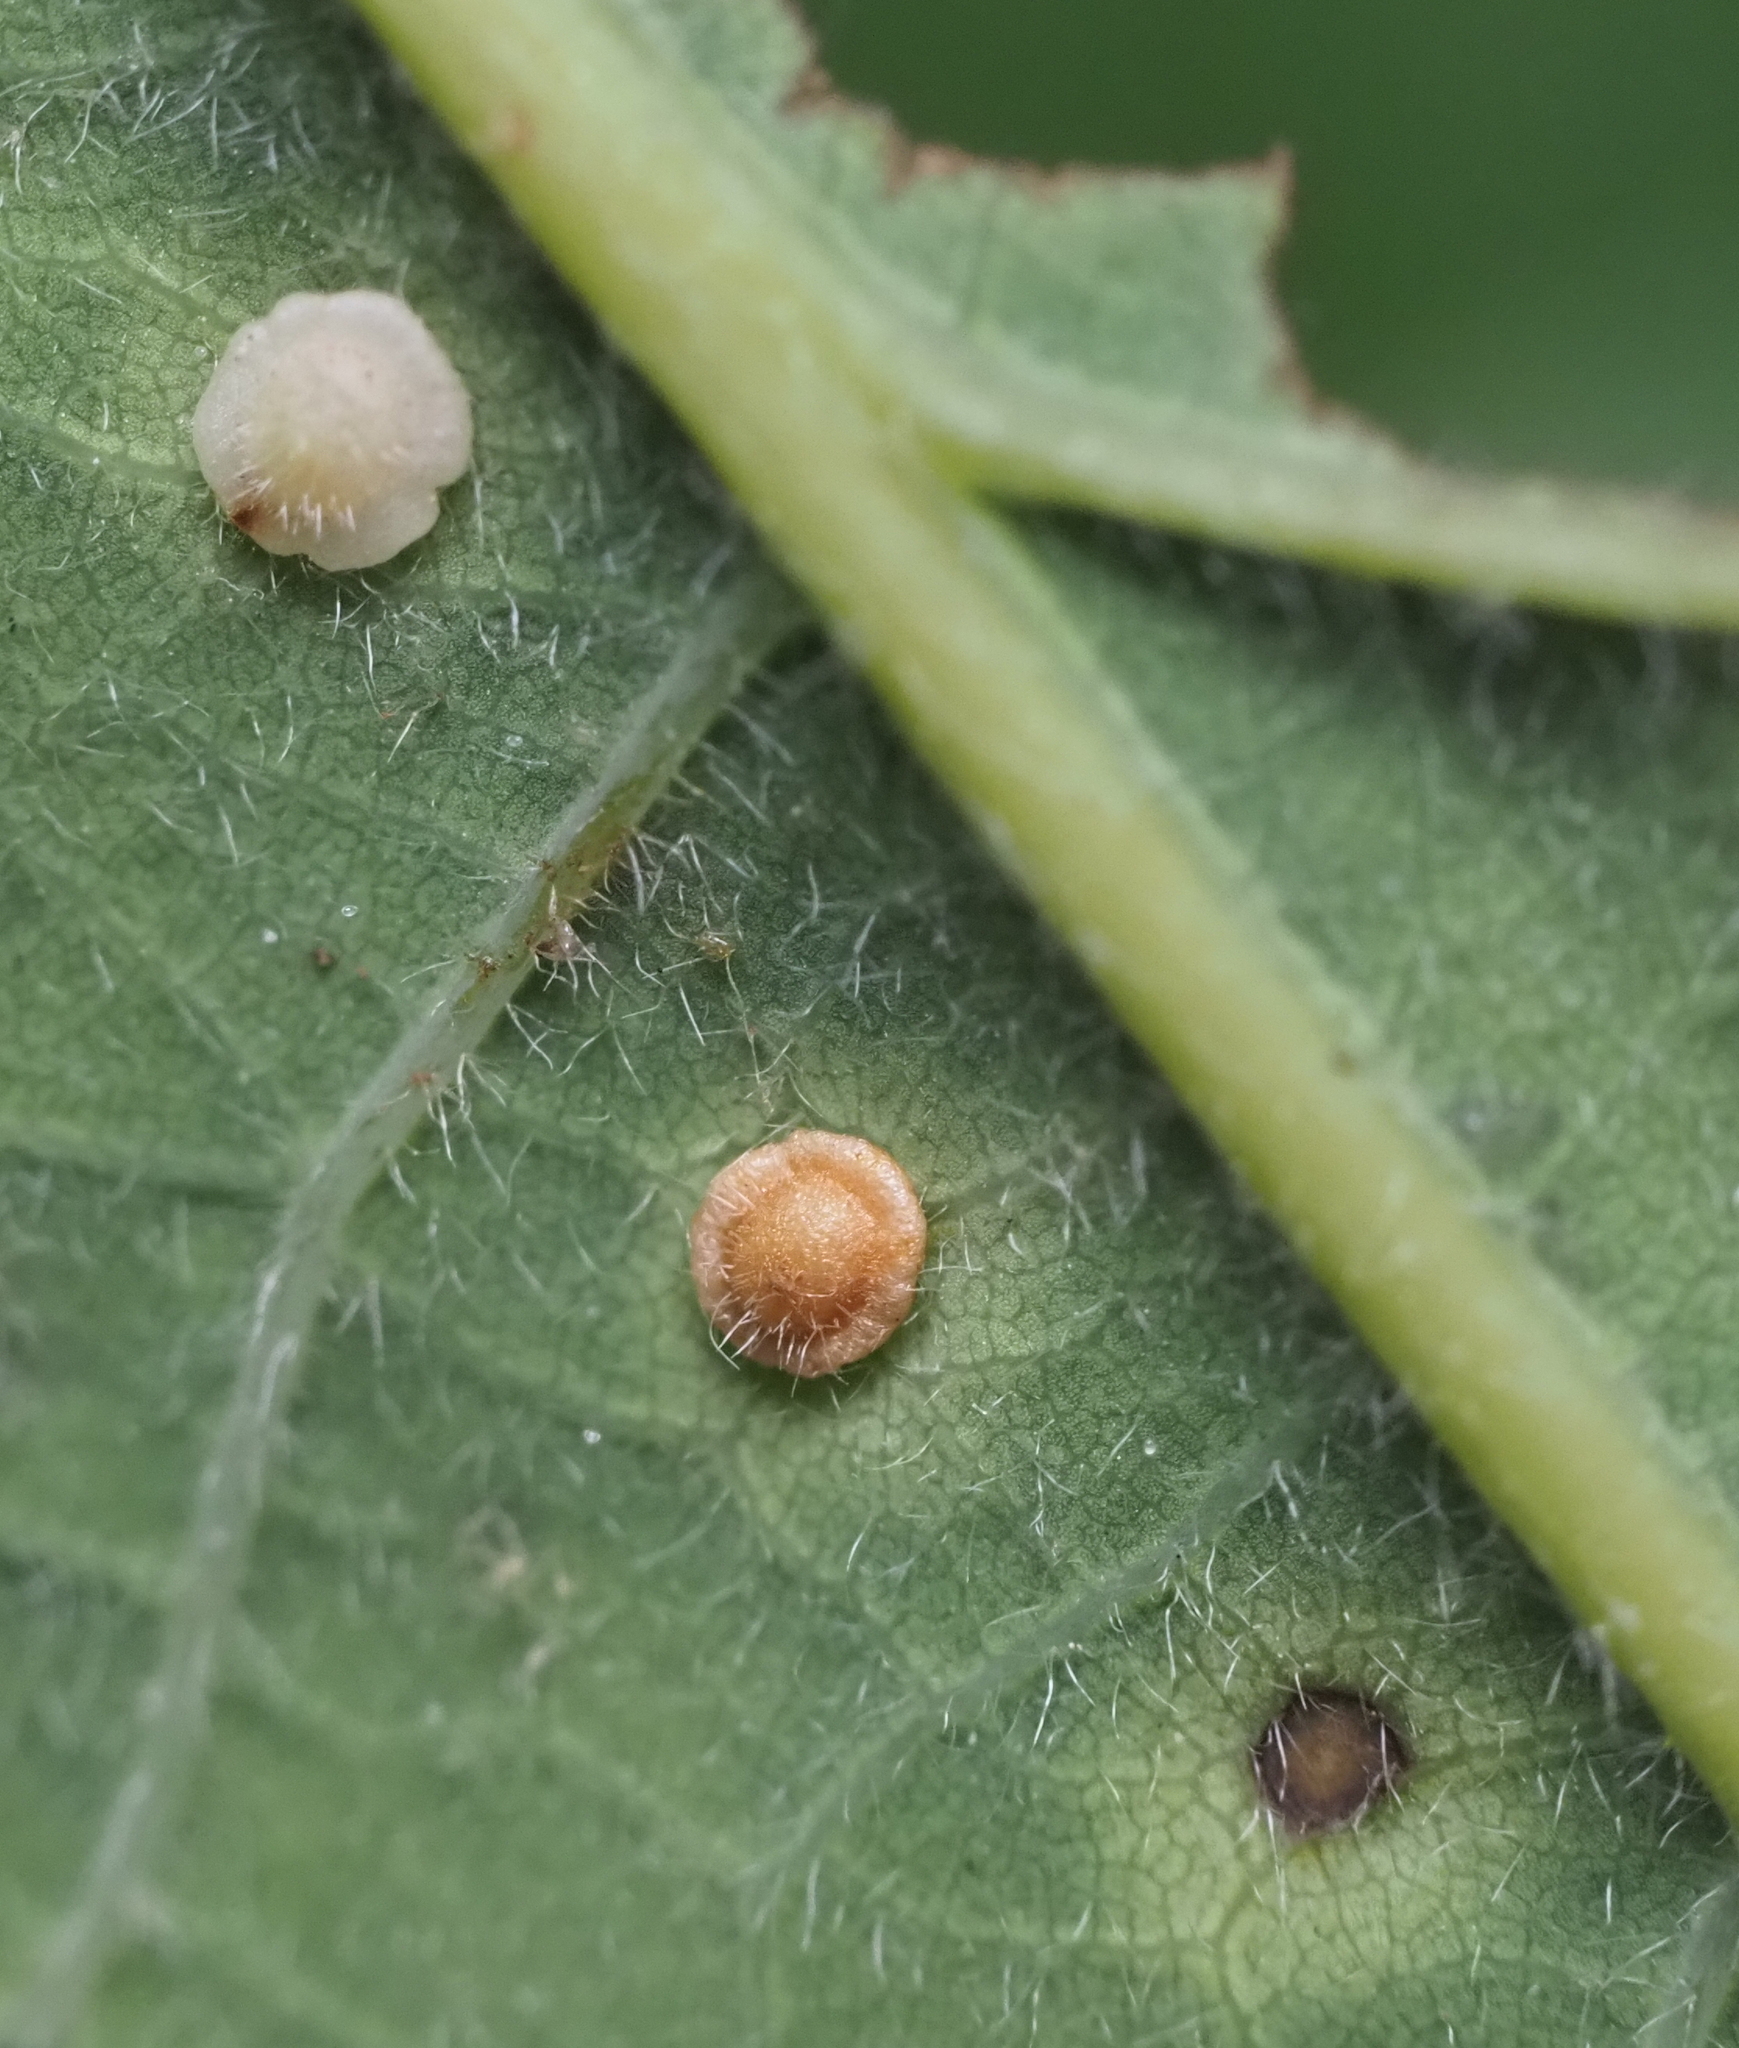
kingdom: Animalia
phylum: Arthropoda
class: Insecta
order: Hymenoptera
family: Cynipidae
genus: Neuroterus
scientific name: Neuroterus
